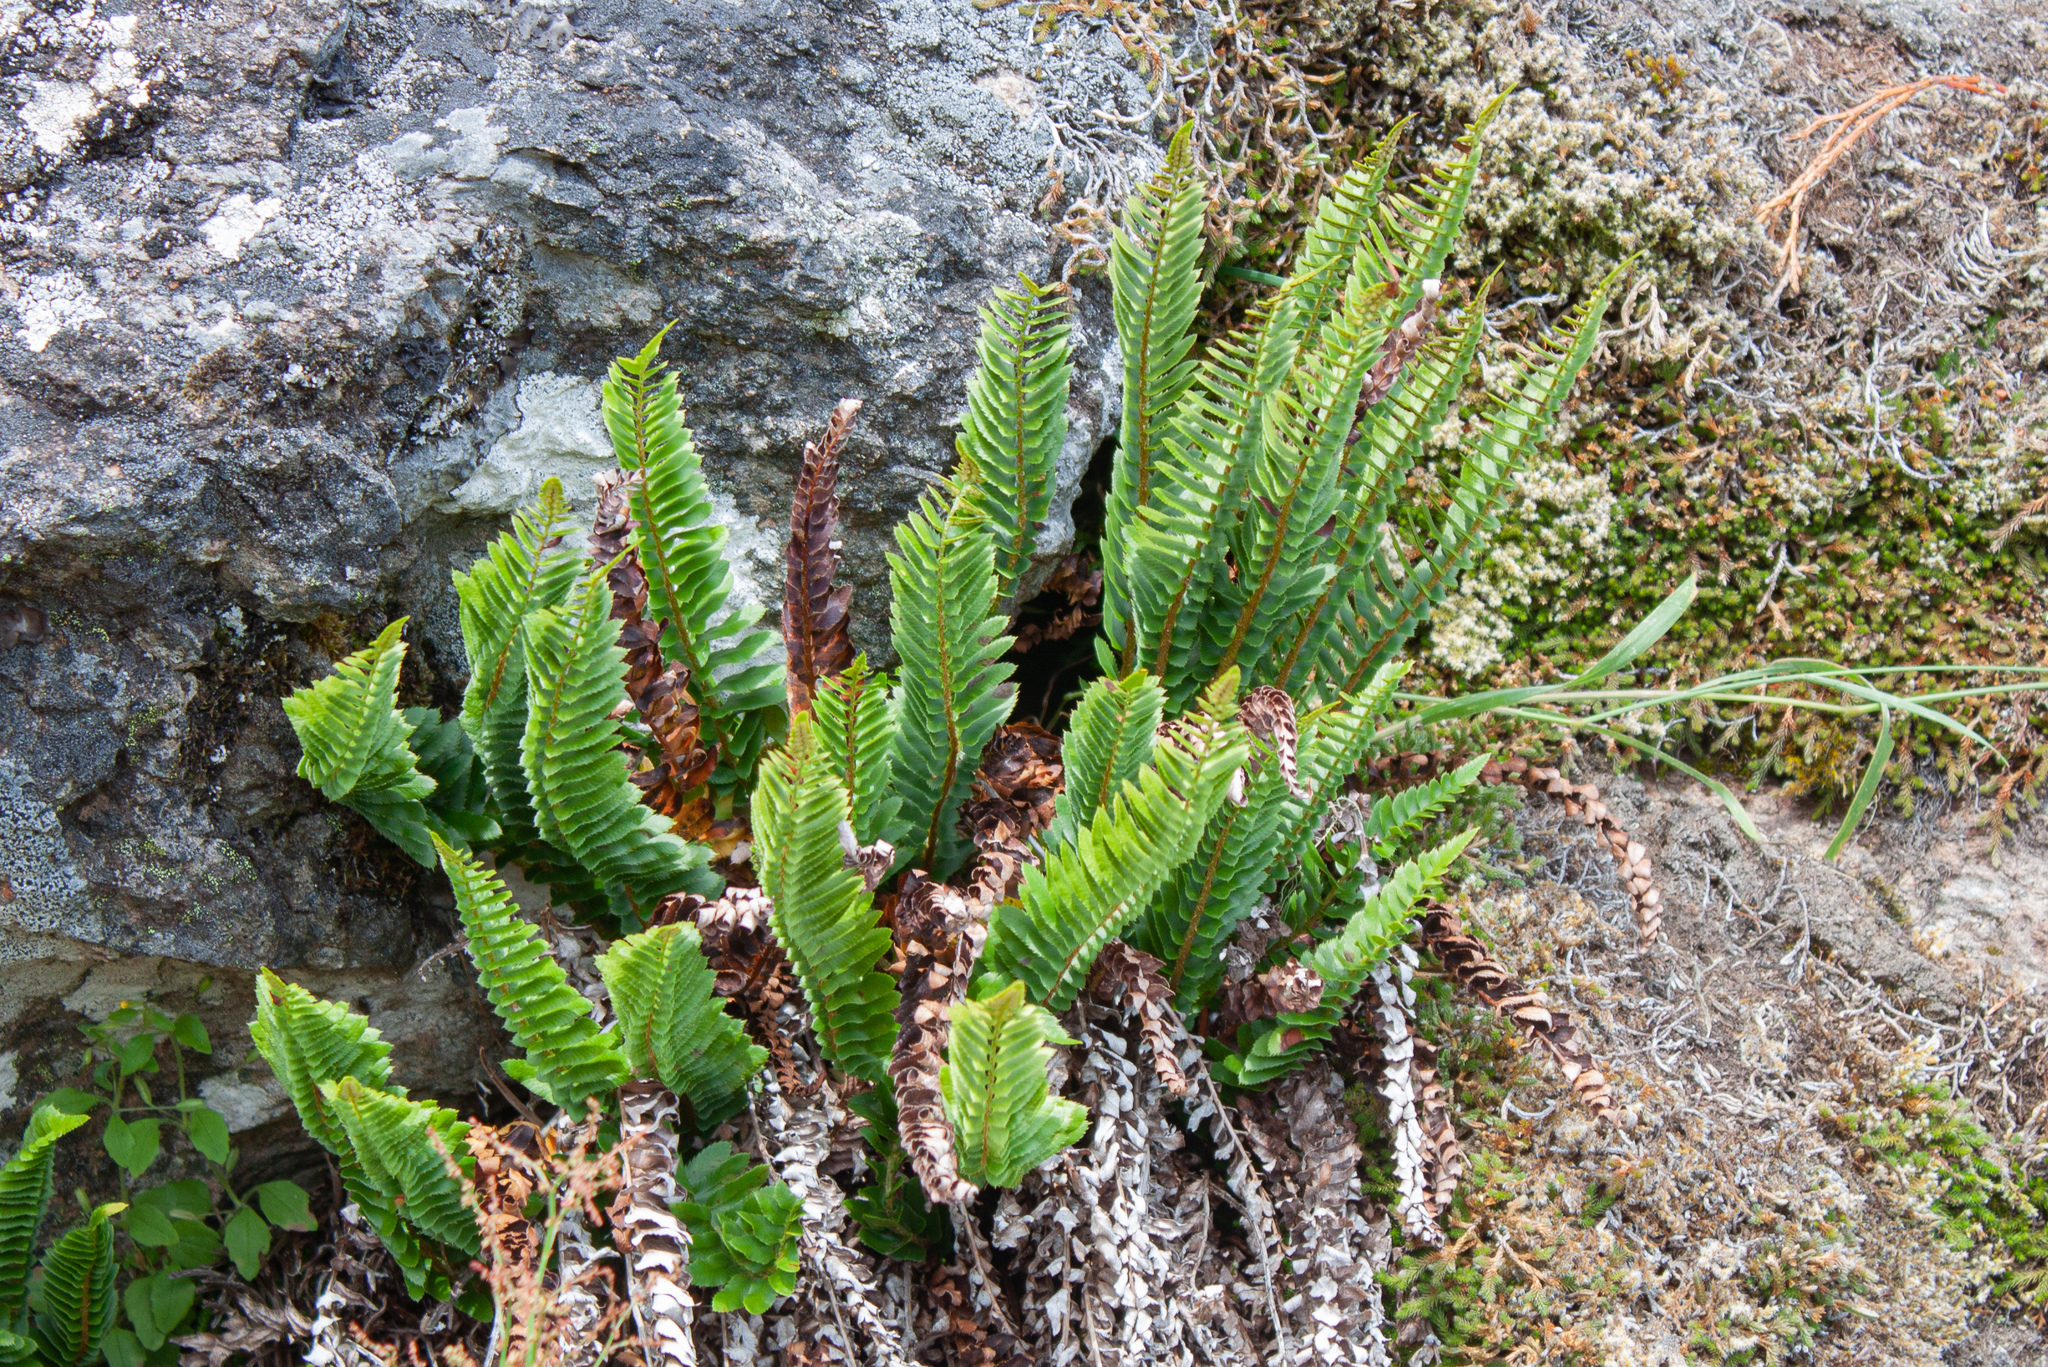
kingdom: Plantae
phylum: Tracheophyta
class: Polypodiopsida
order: Polypodiales
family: Dryopteridaceae
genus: Polystichum
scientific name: Polystichum imbricans
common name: Dwarf western sword fern
